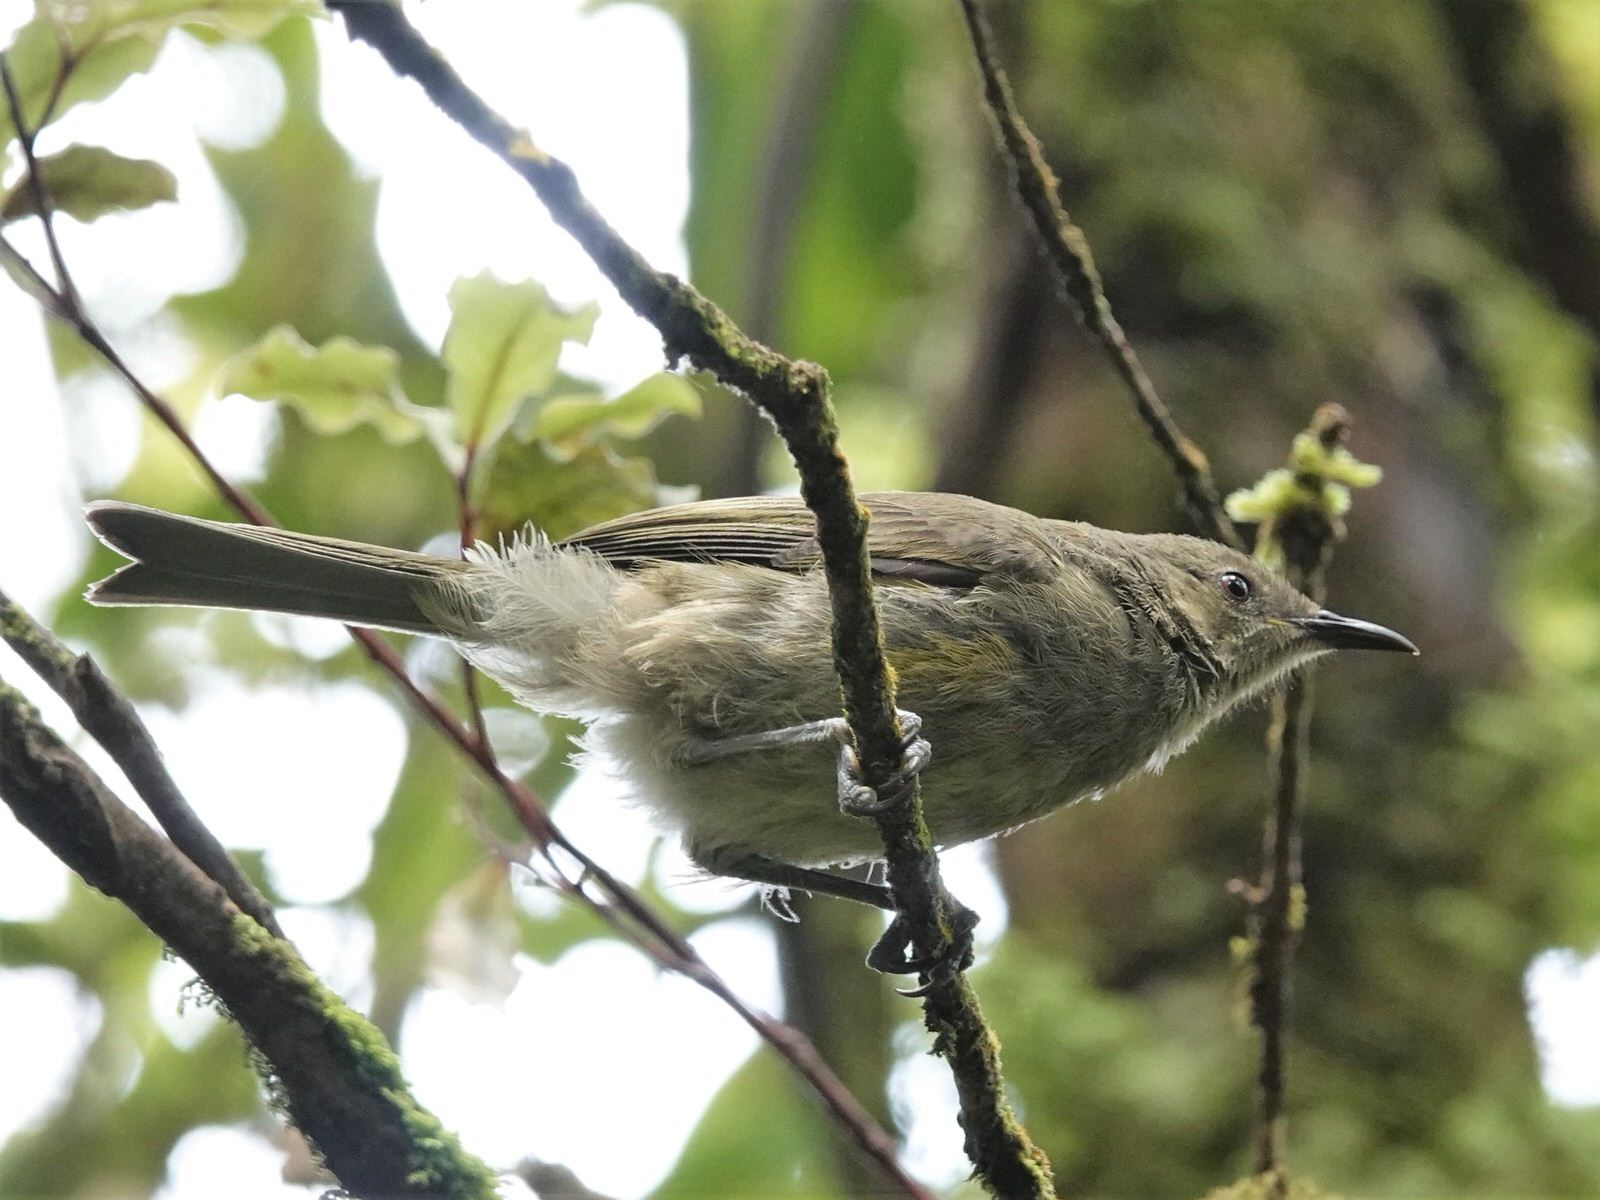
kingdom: Animalia
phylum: Chordata
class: Aves
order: Passeriformes
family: Meliphagidae
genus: Anthornis
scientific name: Anthornis melanura
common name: New zealand bellbird
